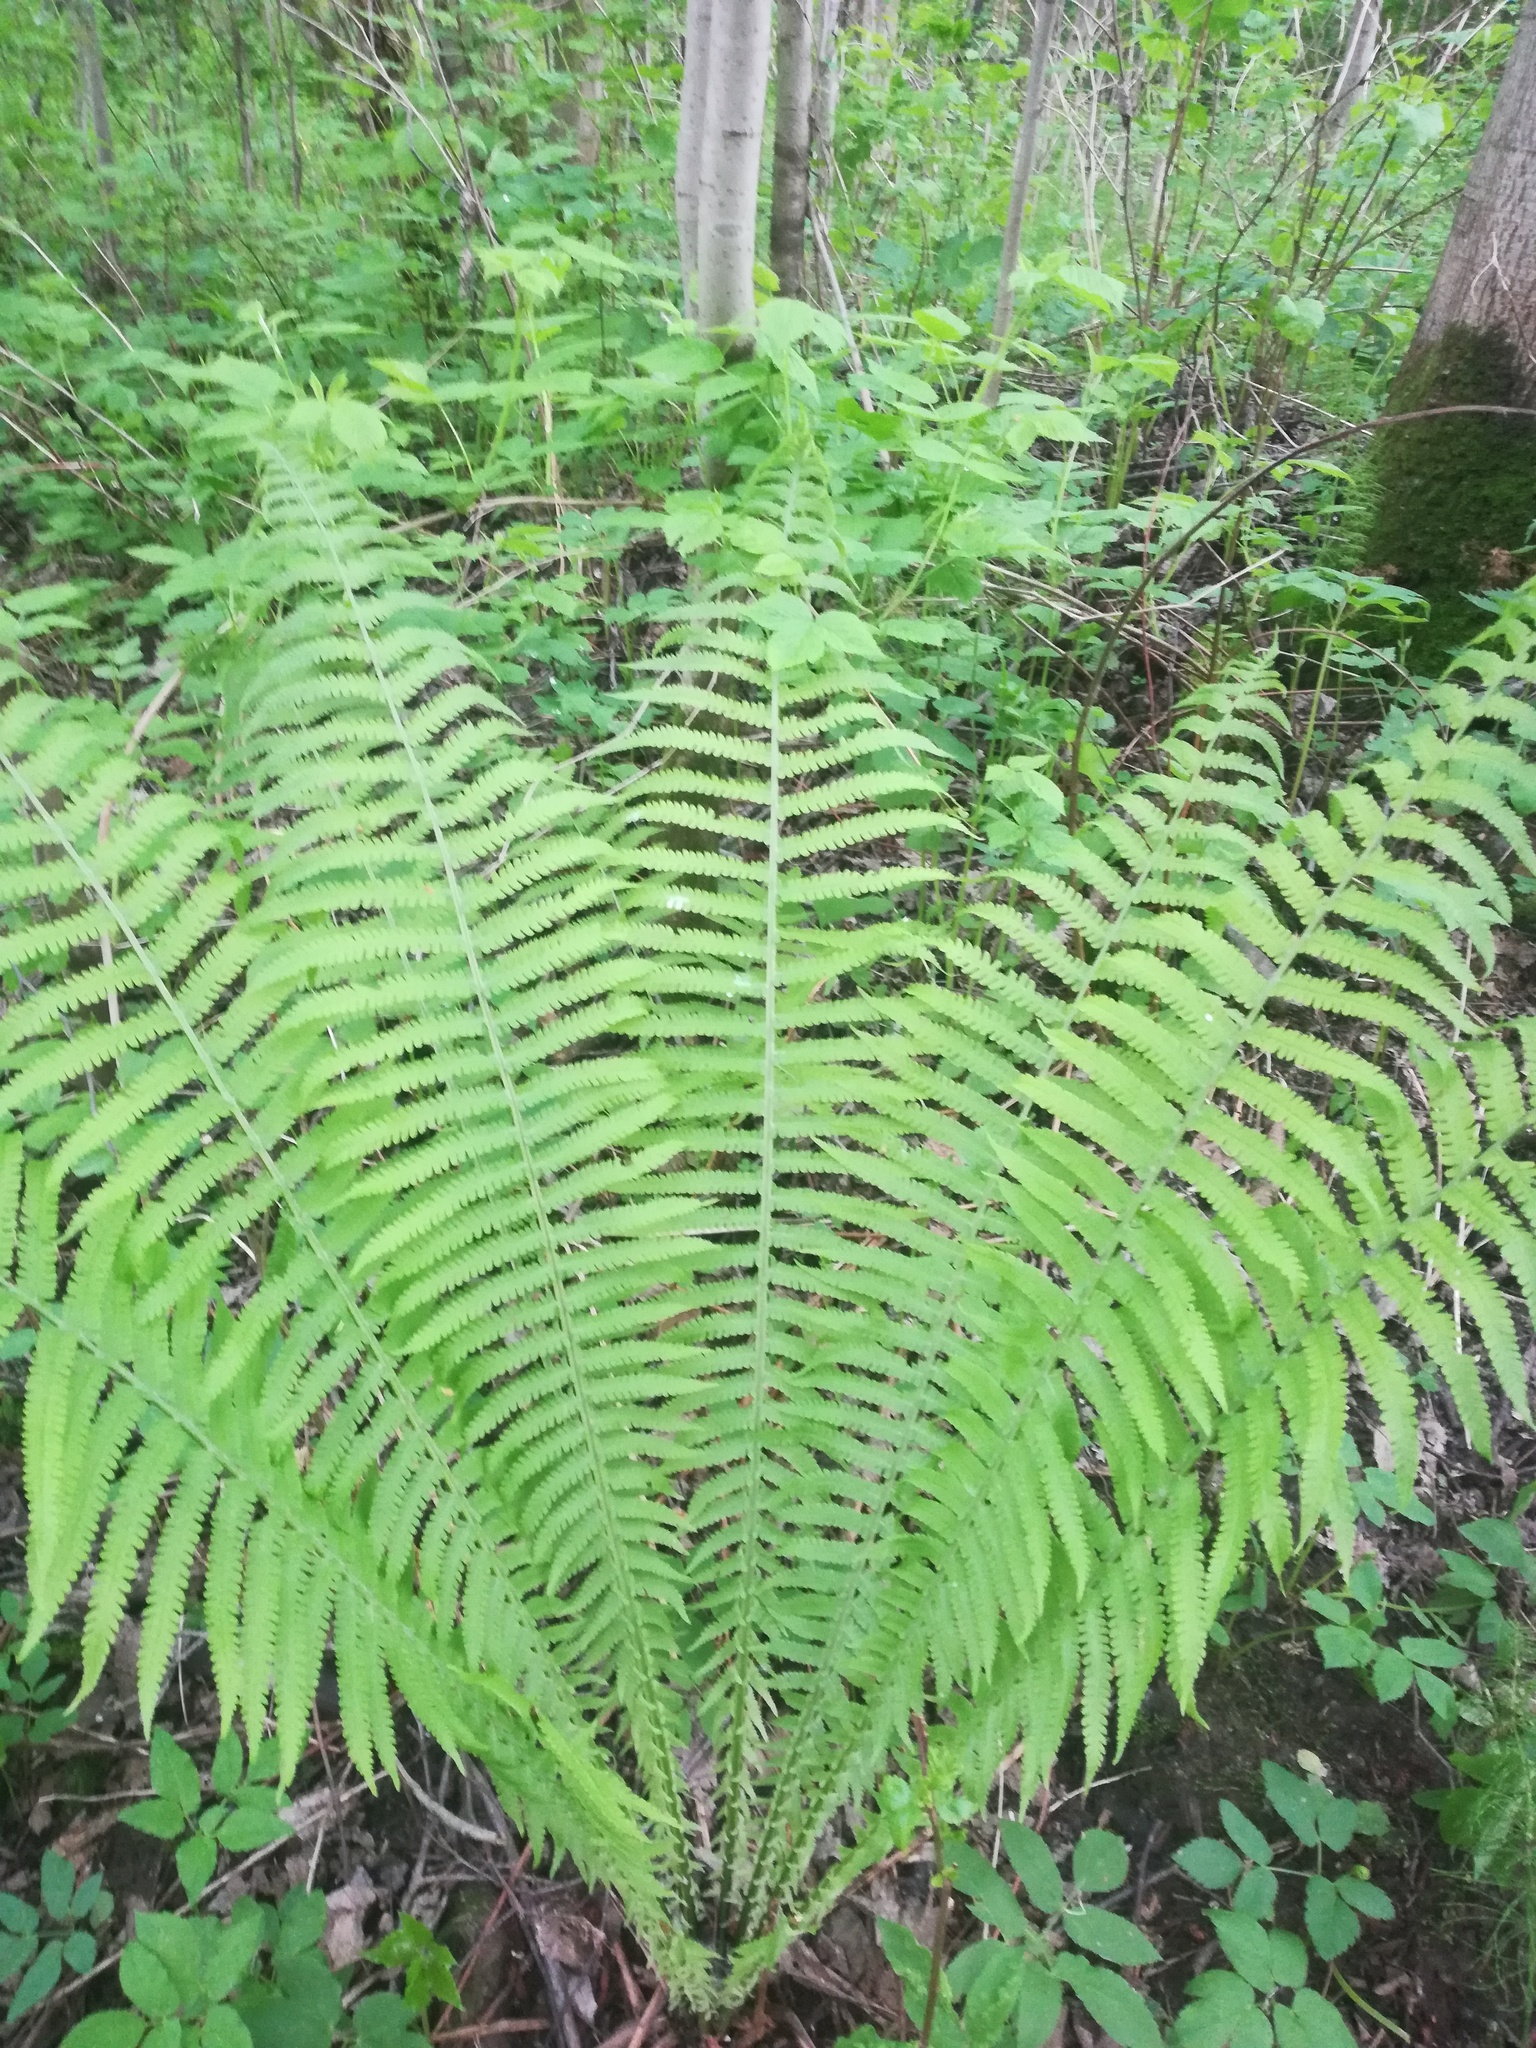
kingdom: Plantae
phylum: Tracheophyta
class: Polypodiopsida
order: Polypodiales
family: Onocleaceae
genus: Matteuccia
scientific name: Matteuccia struthiopteris
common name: Ostrich fern
